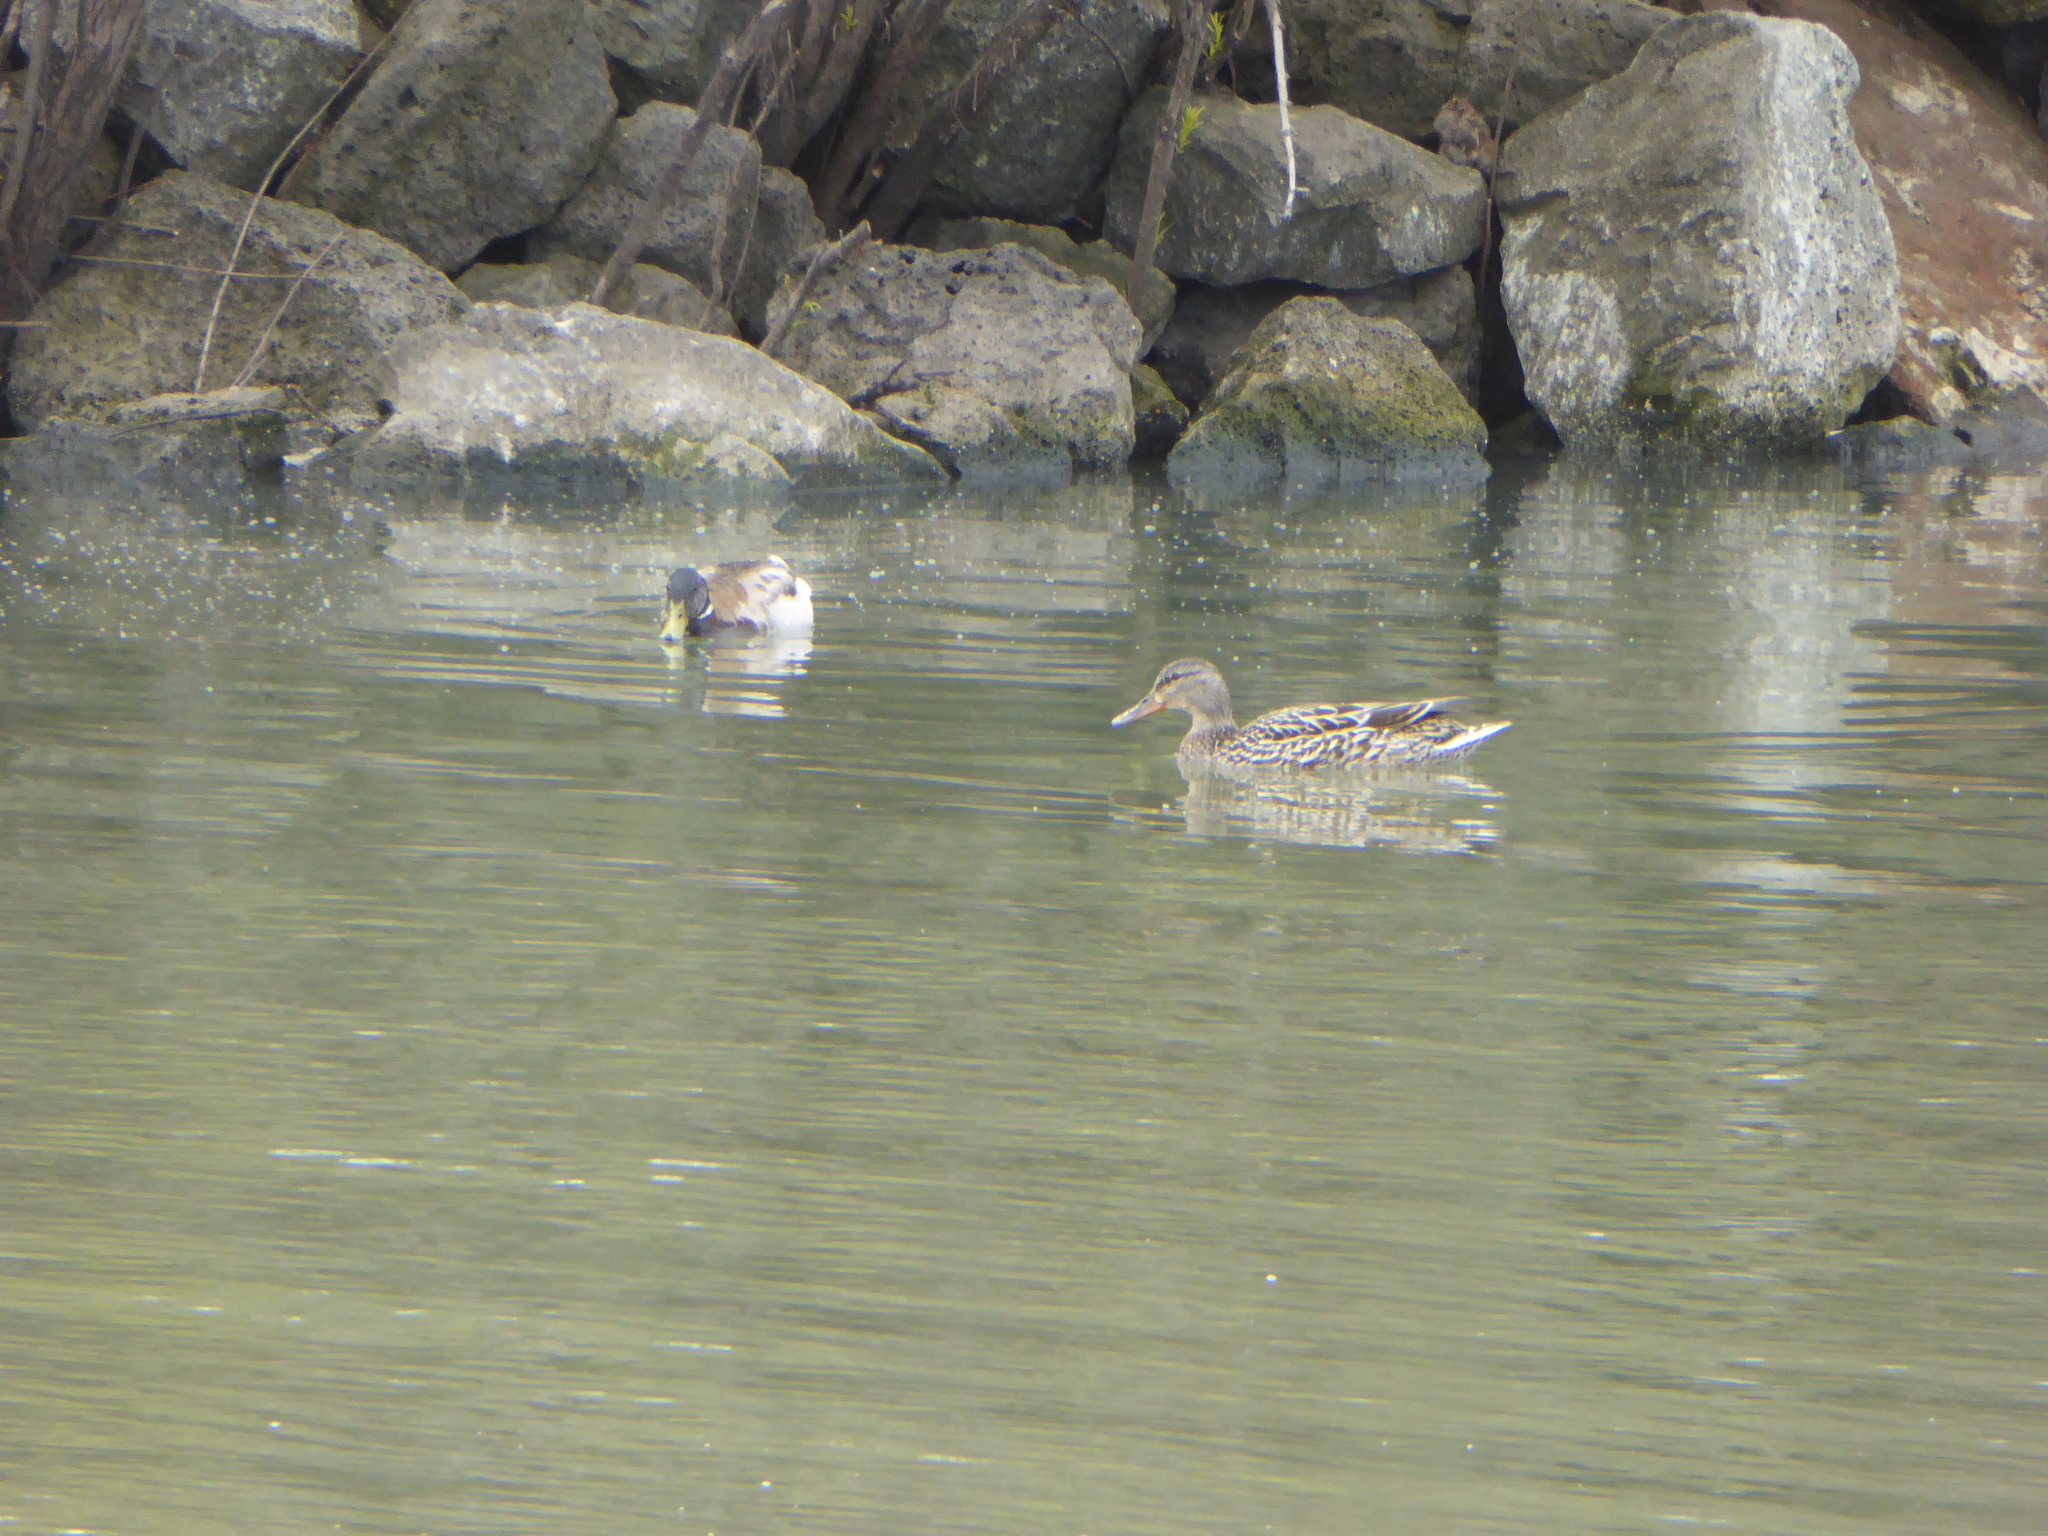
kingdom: Animalia
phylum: Chordata
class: Aves
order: Anseriformes
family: Anatidae
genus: Anas
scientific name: Anas platyrhynchos
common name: Mallard
